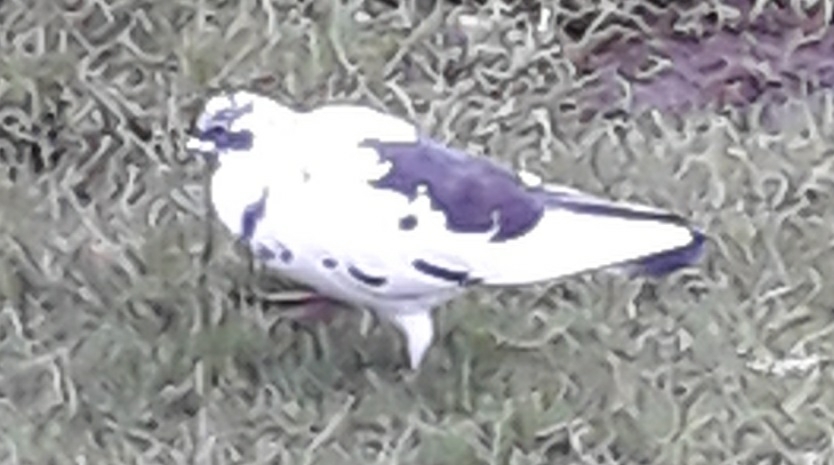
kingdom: Animalia
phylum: Chordata
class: Aves
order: Columbiformes
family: Columbidae
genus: Columba
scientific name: Columba livia
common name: Rock pigeon
